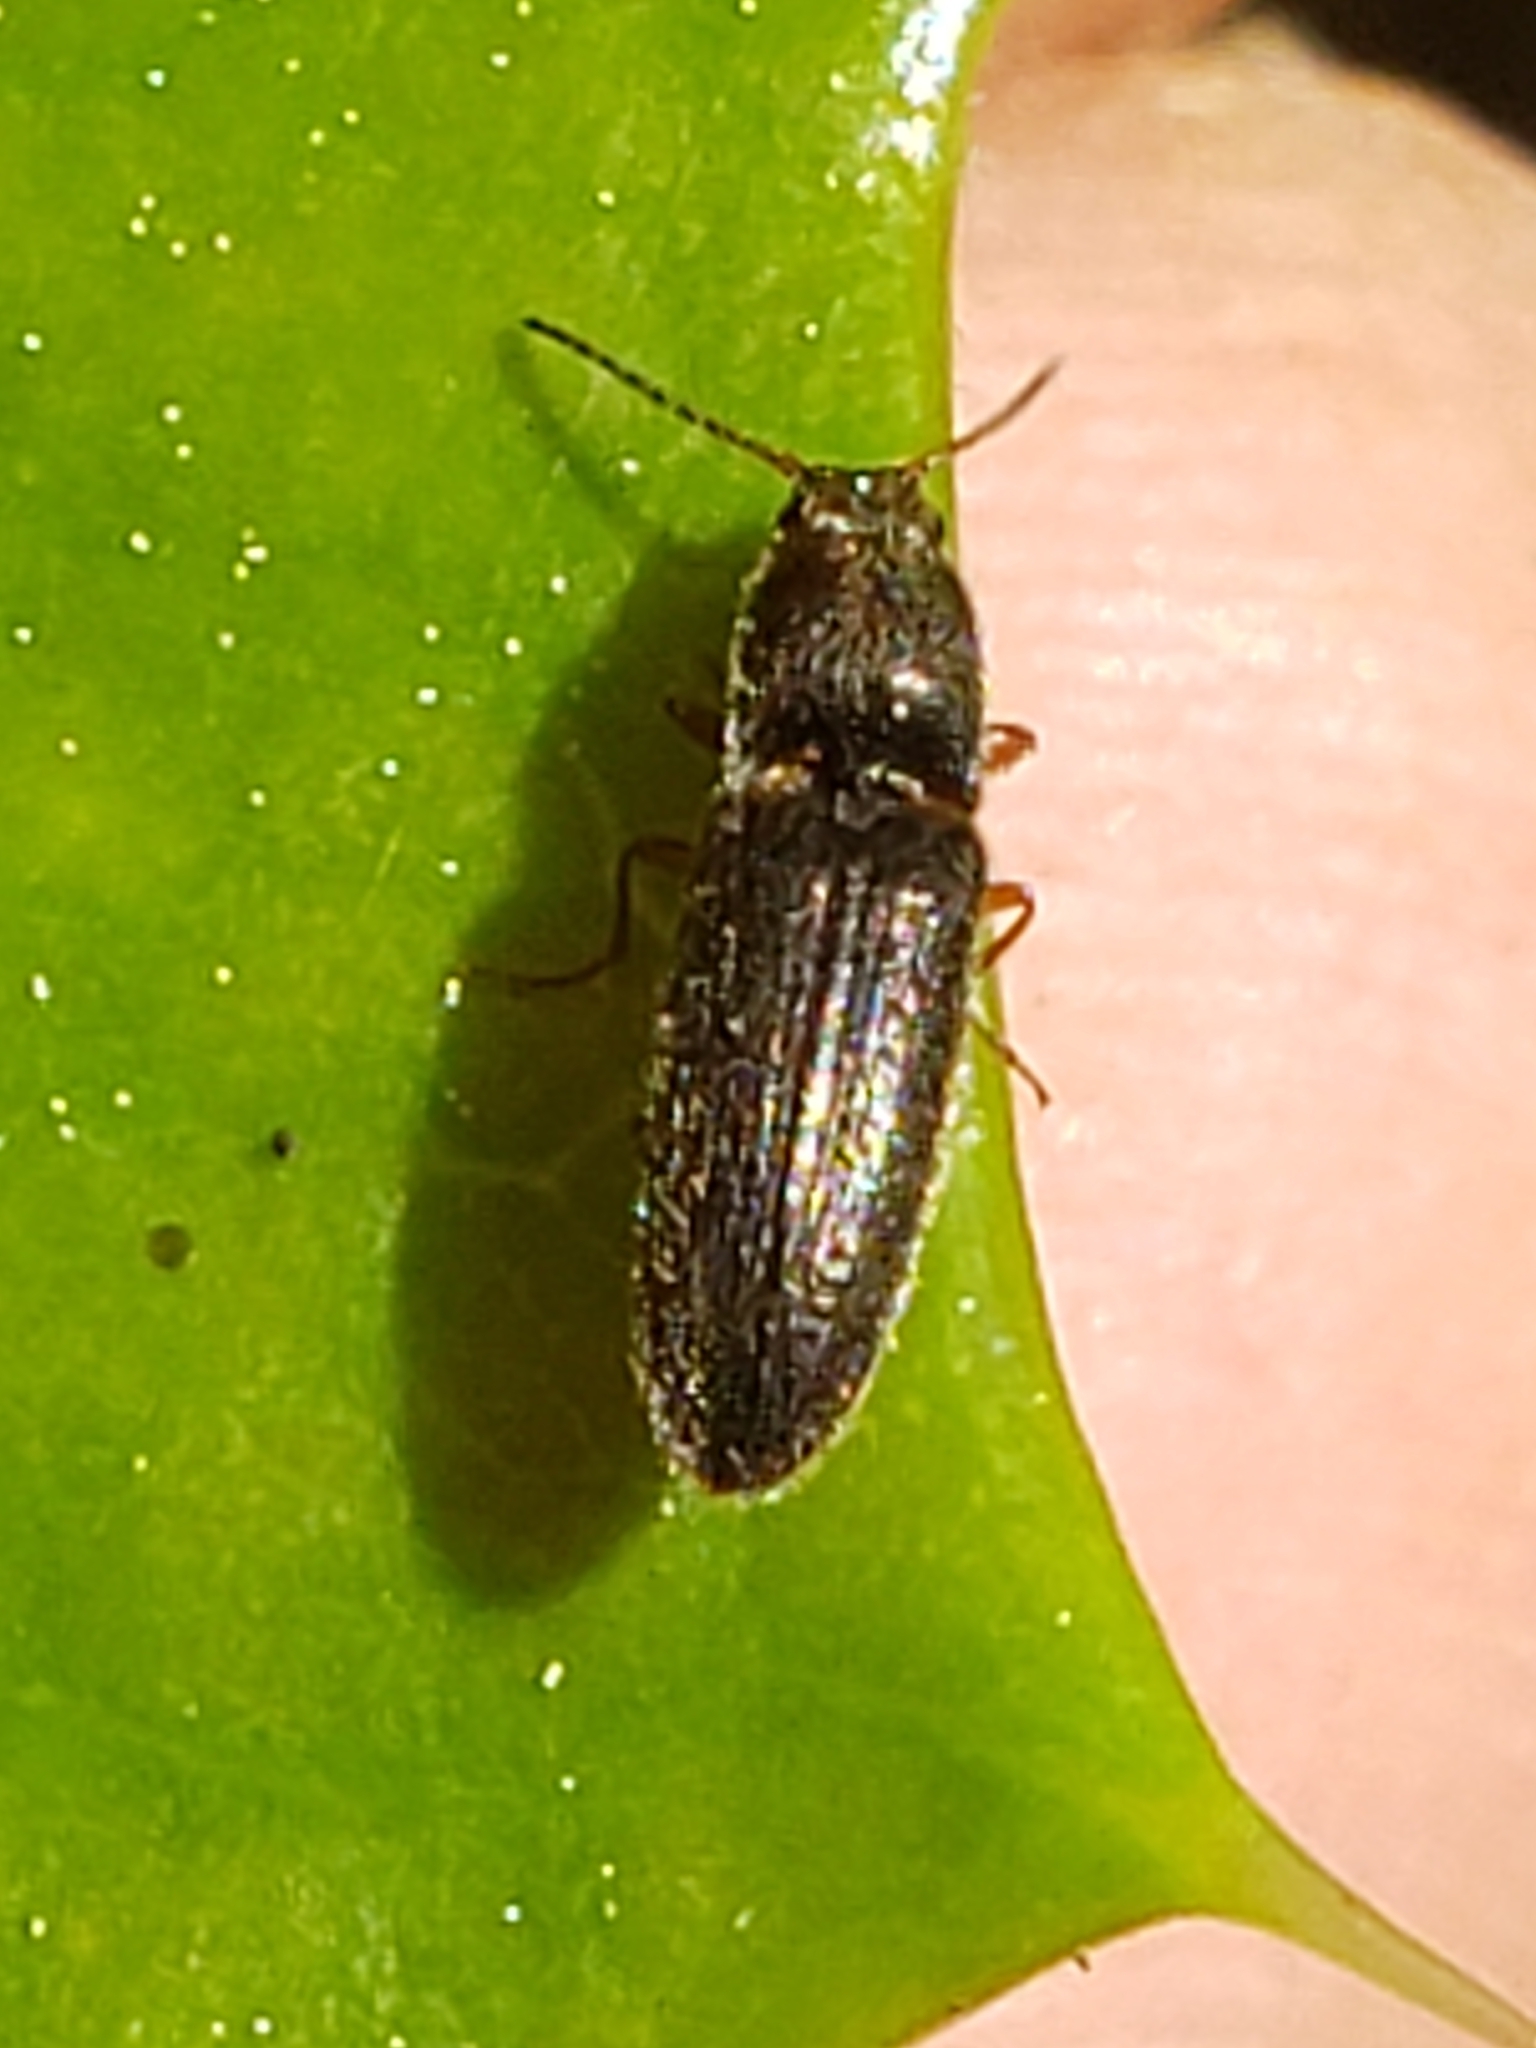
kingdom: Animalia
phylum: Arthropoda
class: Insecta
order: Coleoptera
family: Elateridae
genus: Limonius
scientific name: Limonius quercinus
